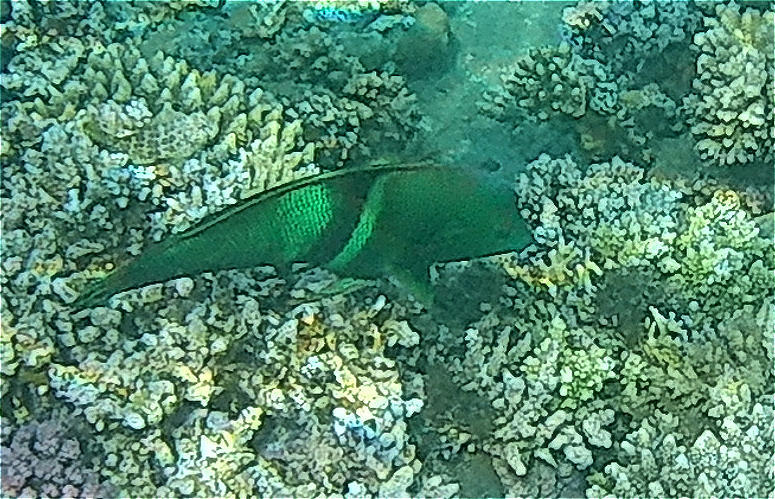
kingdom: Animalia
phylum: Chordata
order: Perciformes
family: Labridae
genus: Coris
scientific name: Coris aygula
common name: Clown coris
